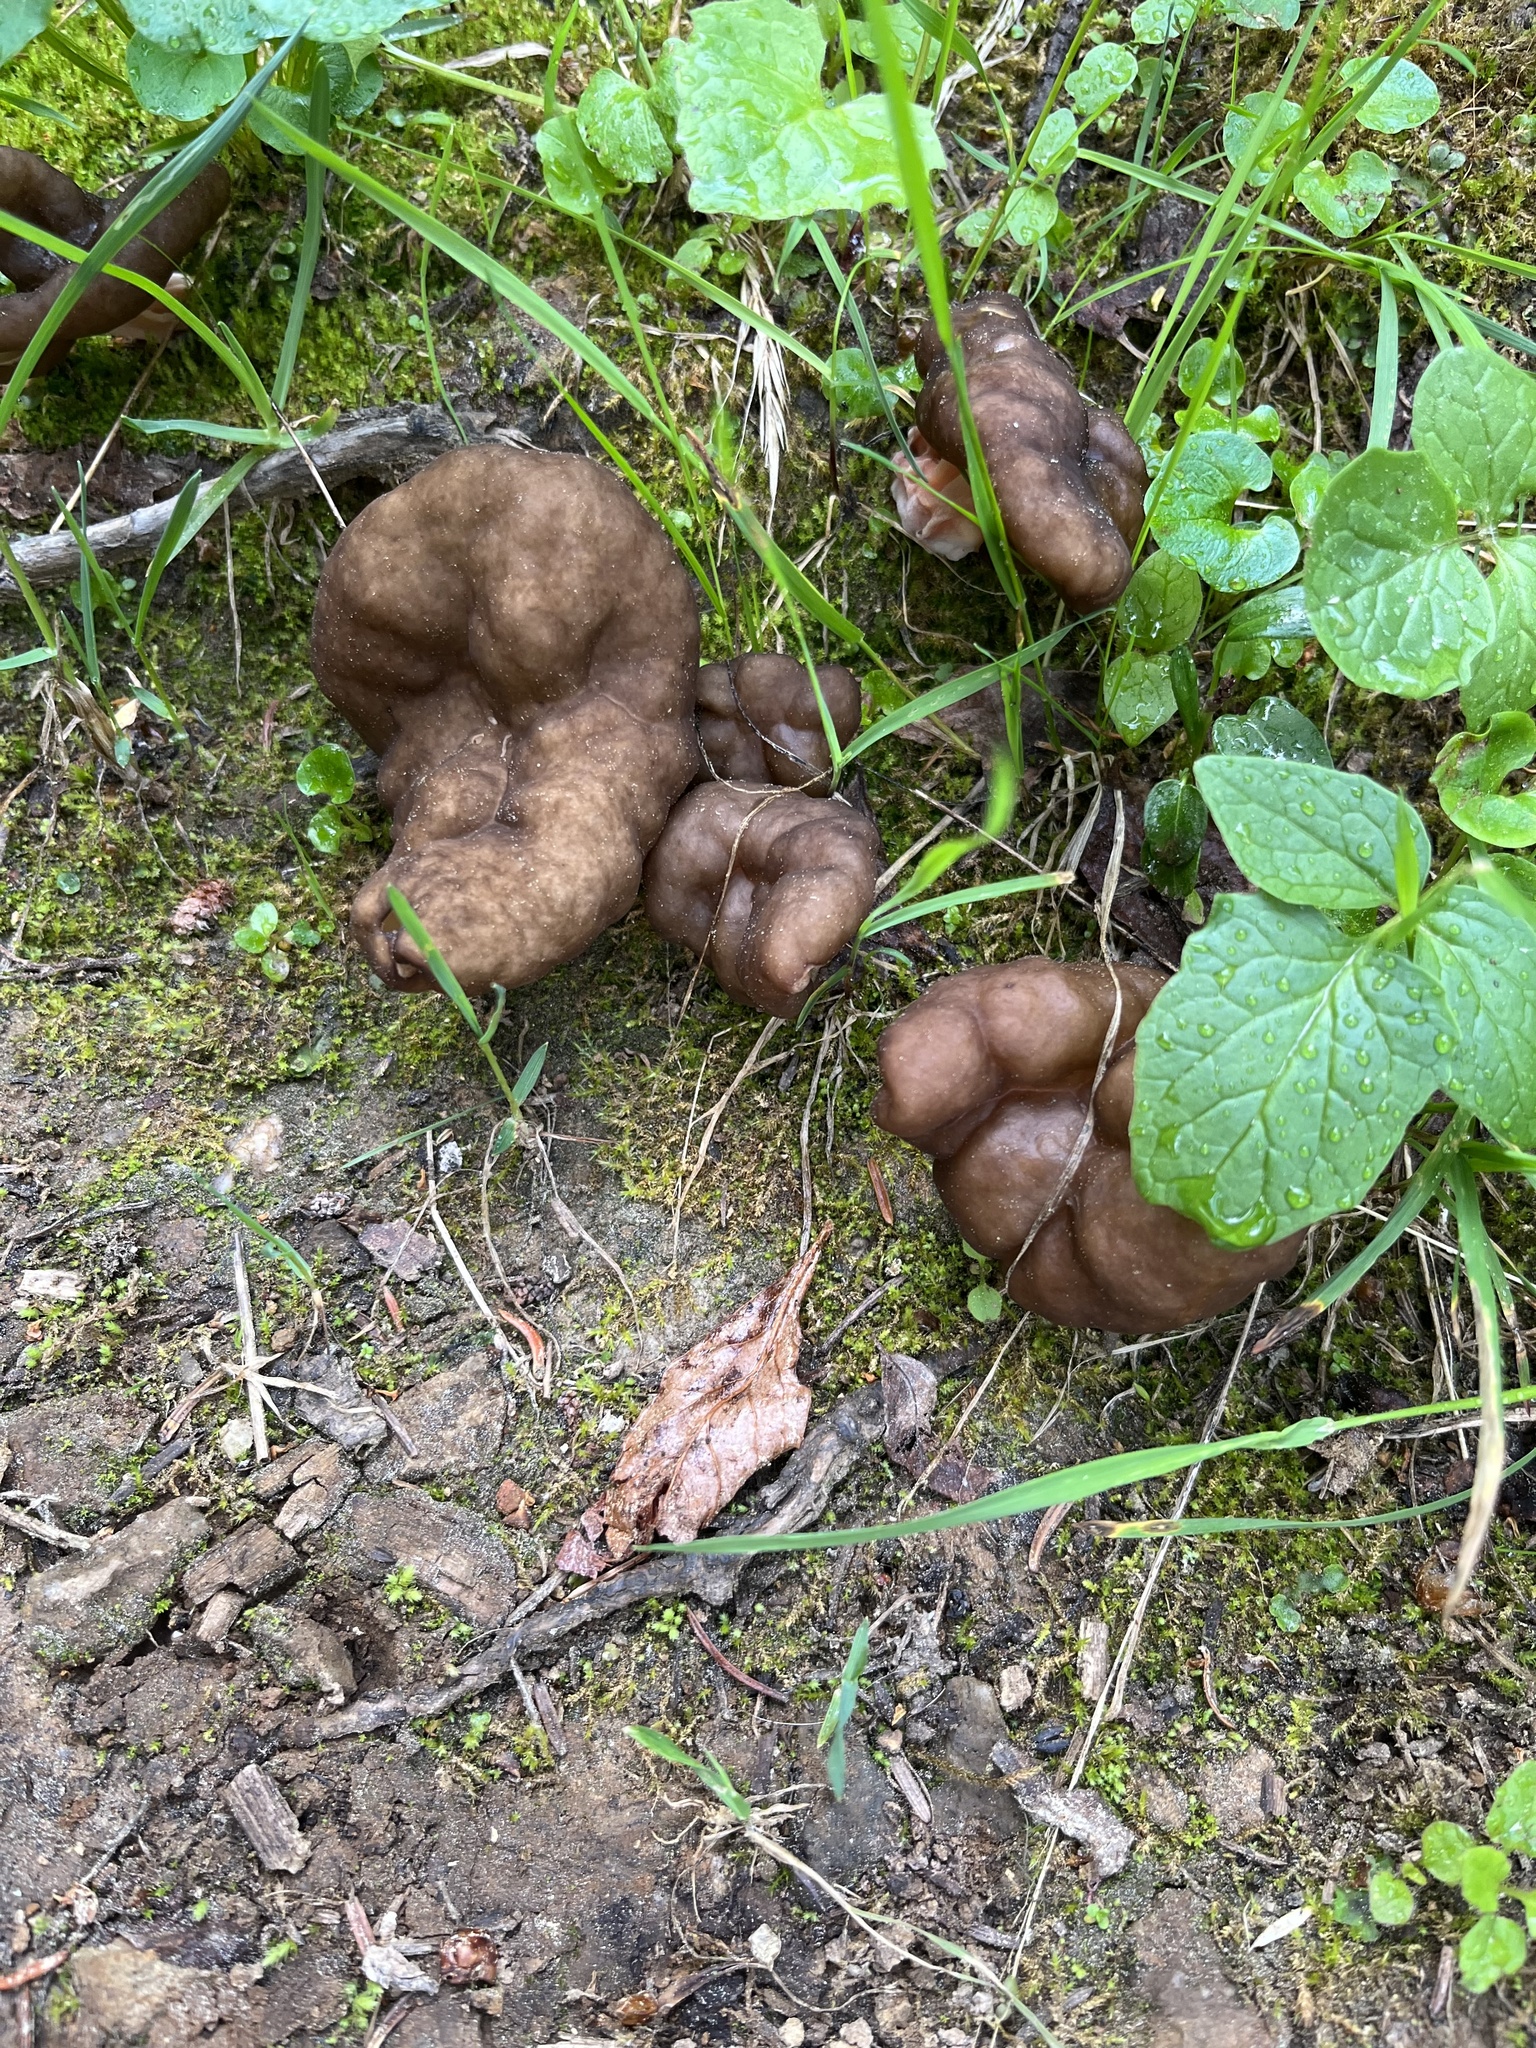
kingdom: Fungi
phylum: Ascomycota
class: Pezizomycetes
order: Pezizales
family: Discinaceae
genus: Gyromitra
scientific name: Gyromitra californica
